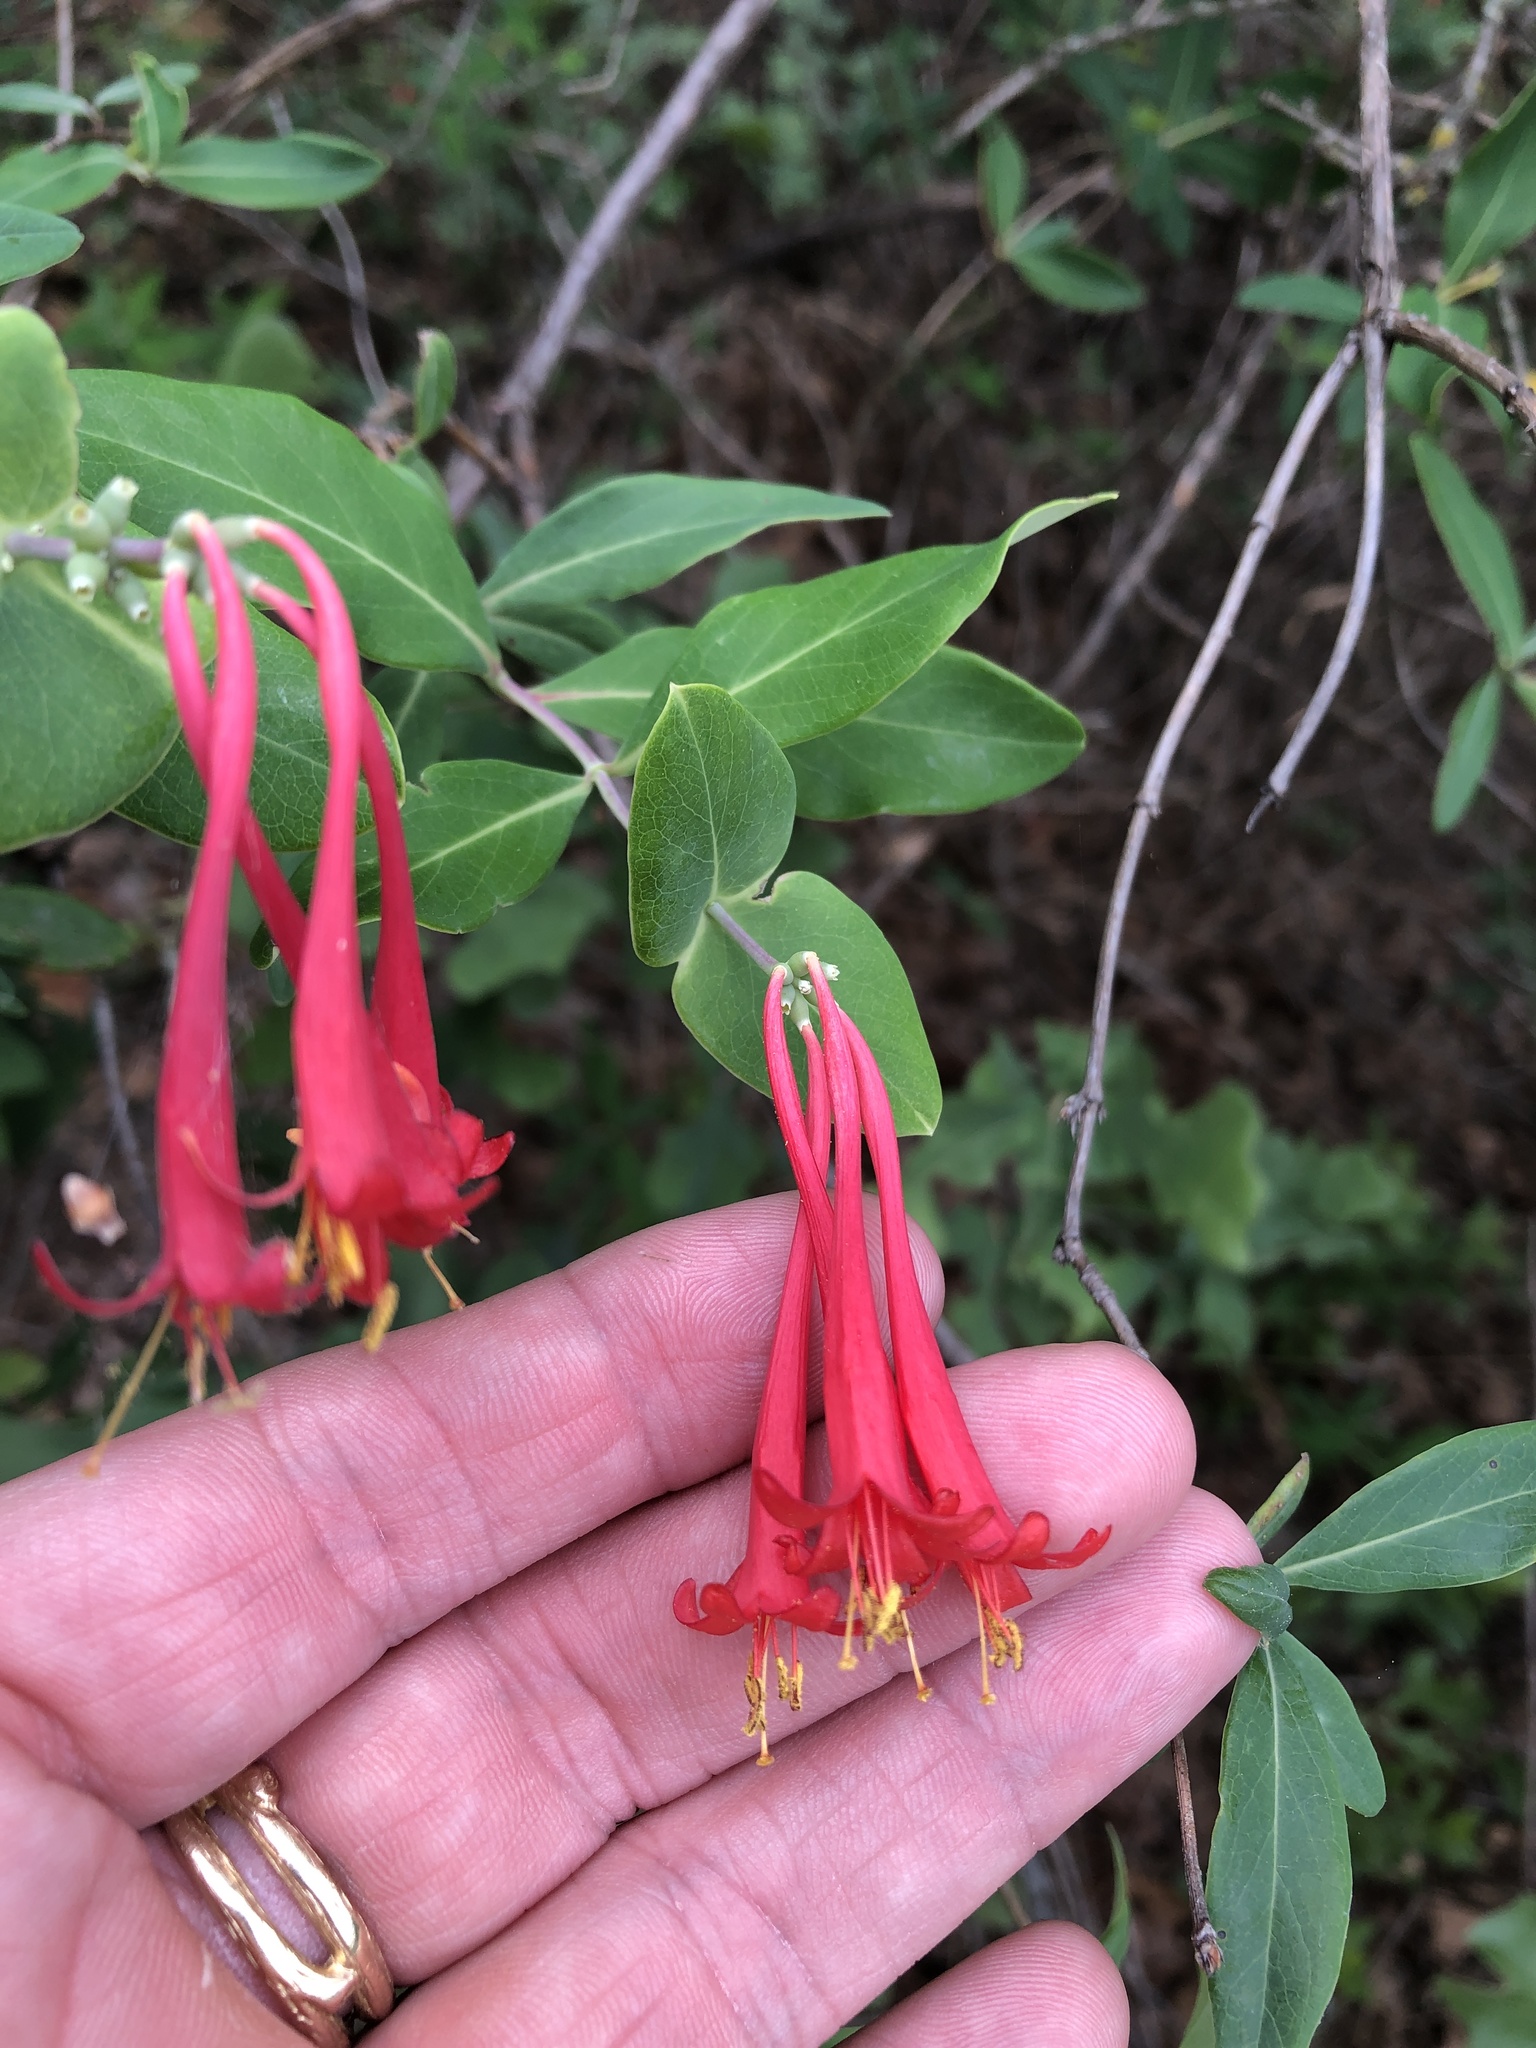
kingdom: Plantae
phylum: Tracheophyta
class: Magnoliopsida
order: Dipsacales
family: Caprifoliaceae
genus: Lonicera
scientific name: Lonicera sempervirens
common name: Coral honeysuckle
